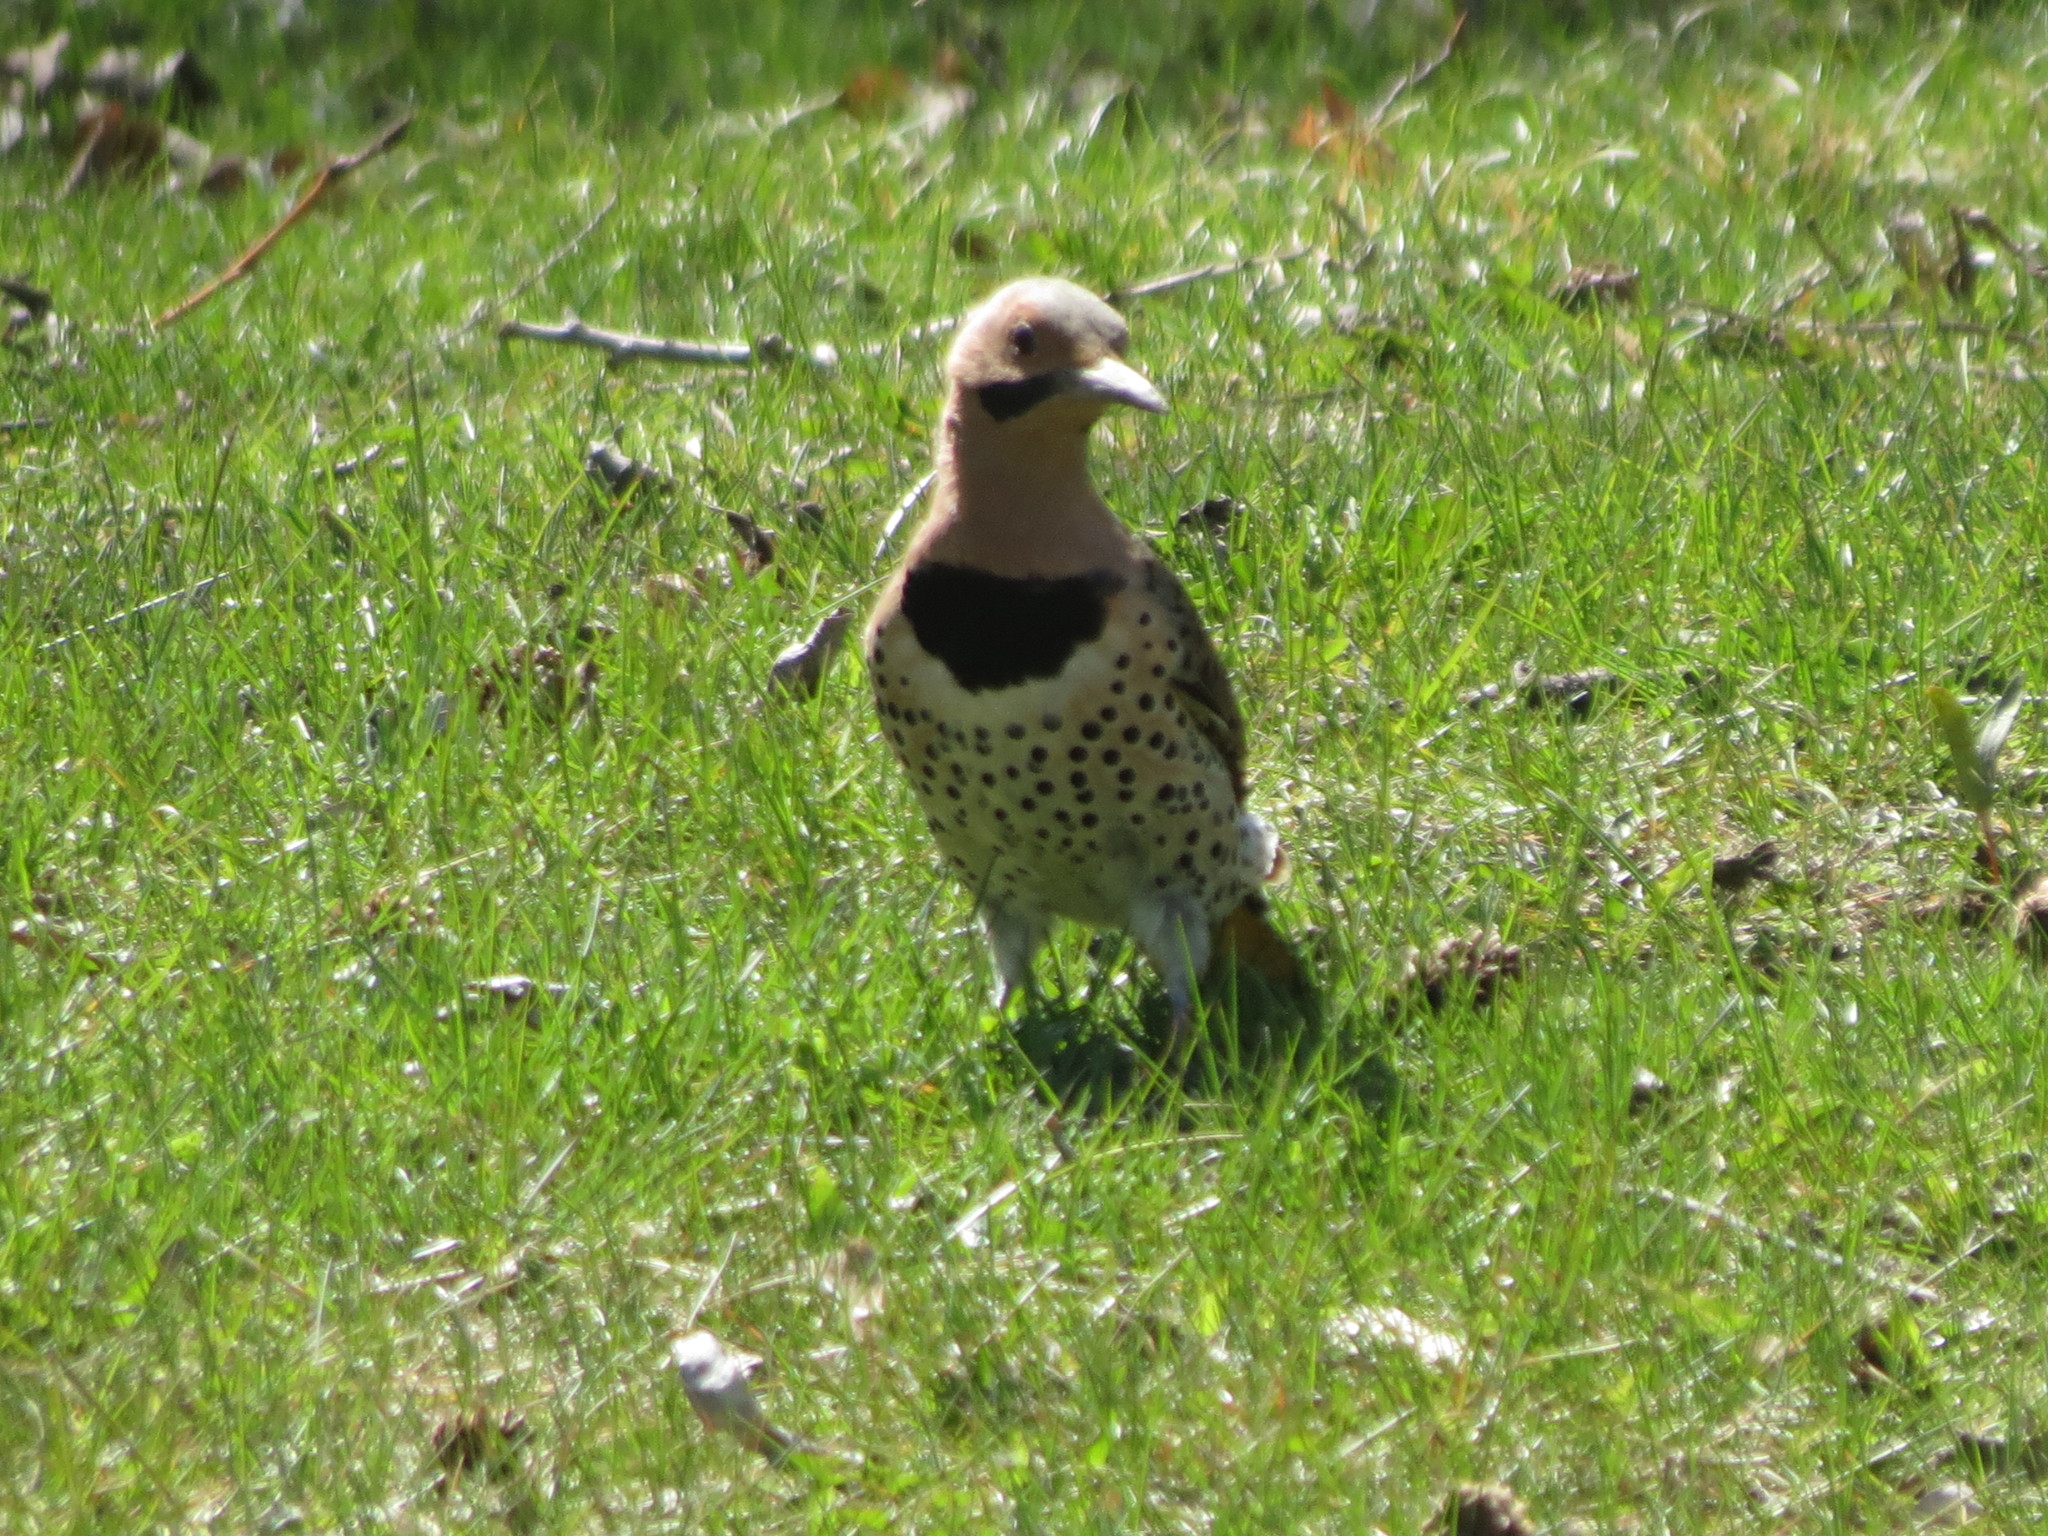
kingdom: Animalia
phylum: Chordata
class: Aves
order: Piciformes
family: Picidae
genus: Colaptes
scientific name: Colaptes auratus
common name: Northern flicker
